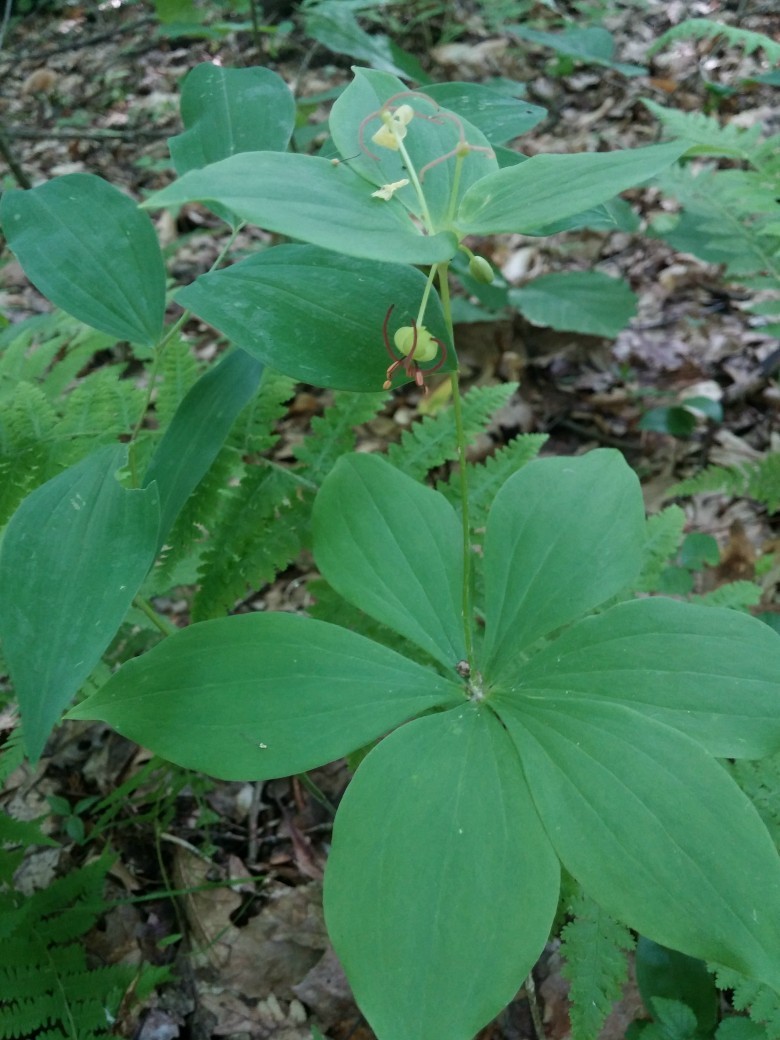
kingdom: Plantae
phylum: Tracheophyta
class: Liliopsida
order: Liliales
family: Liliaceae
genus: Medeola
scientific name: Medeola virginiana
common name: Indian cucumber-root
